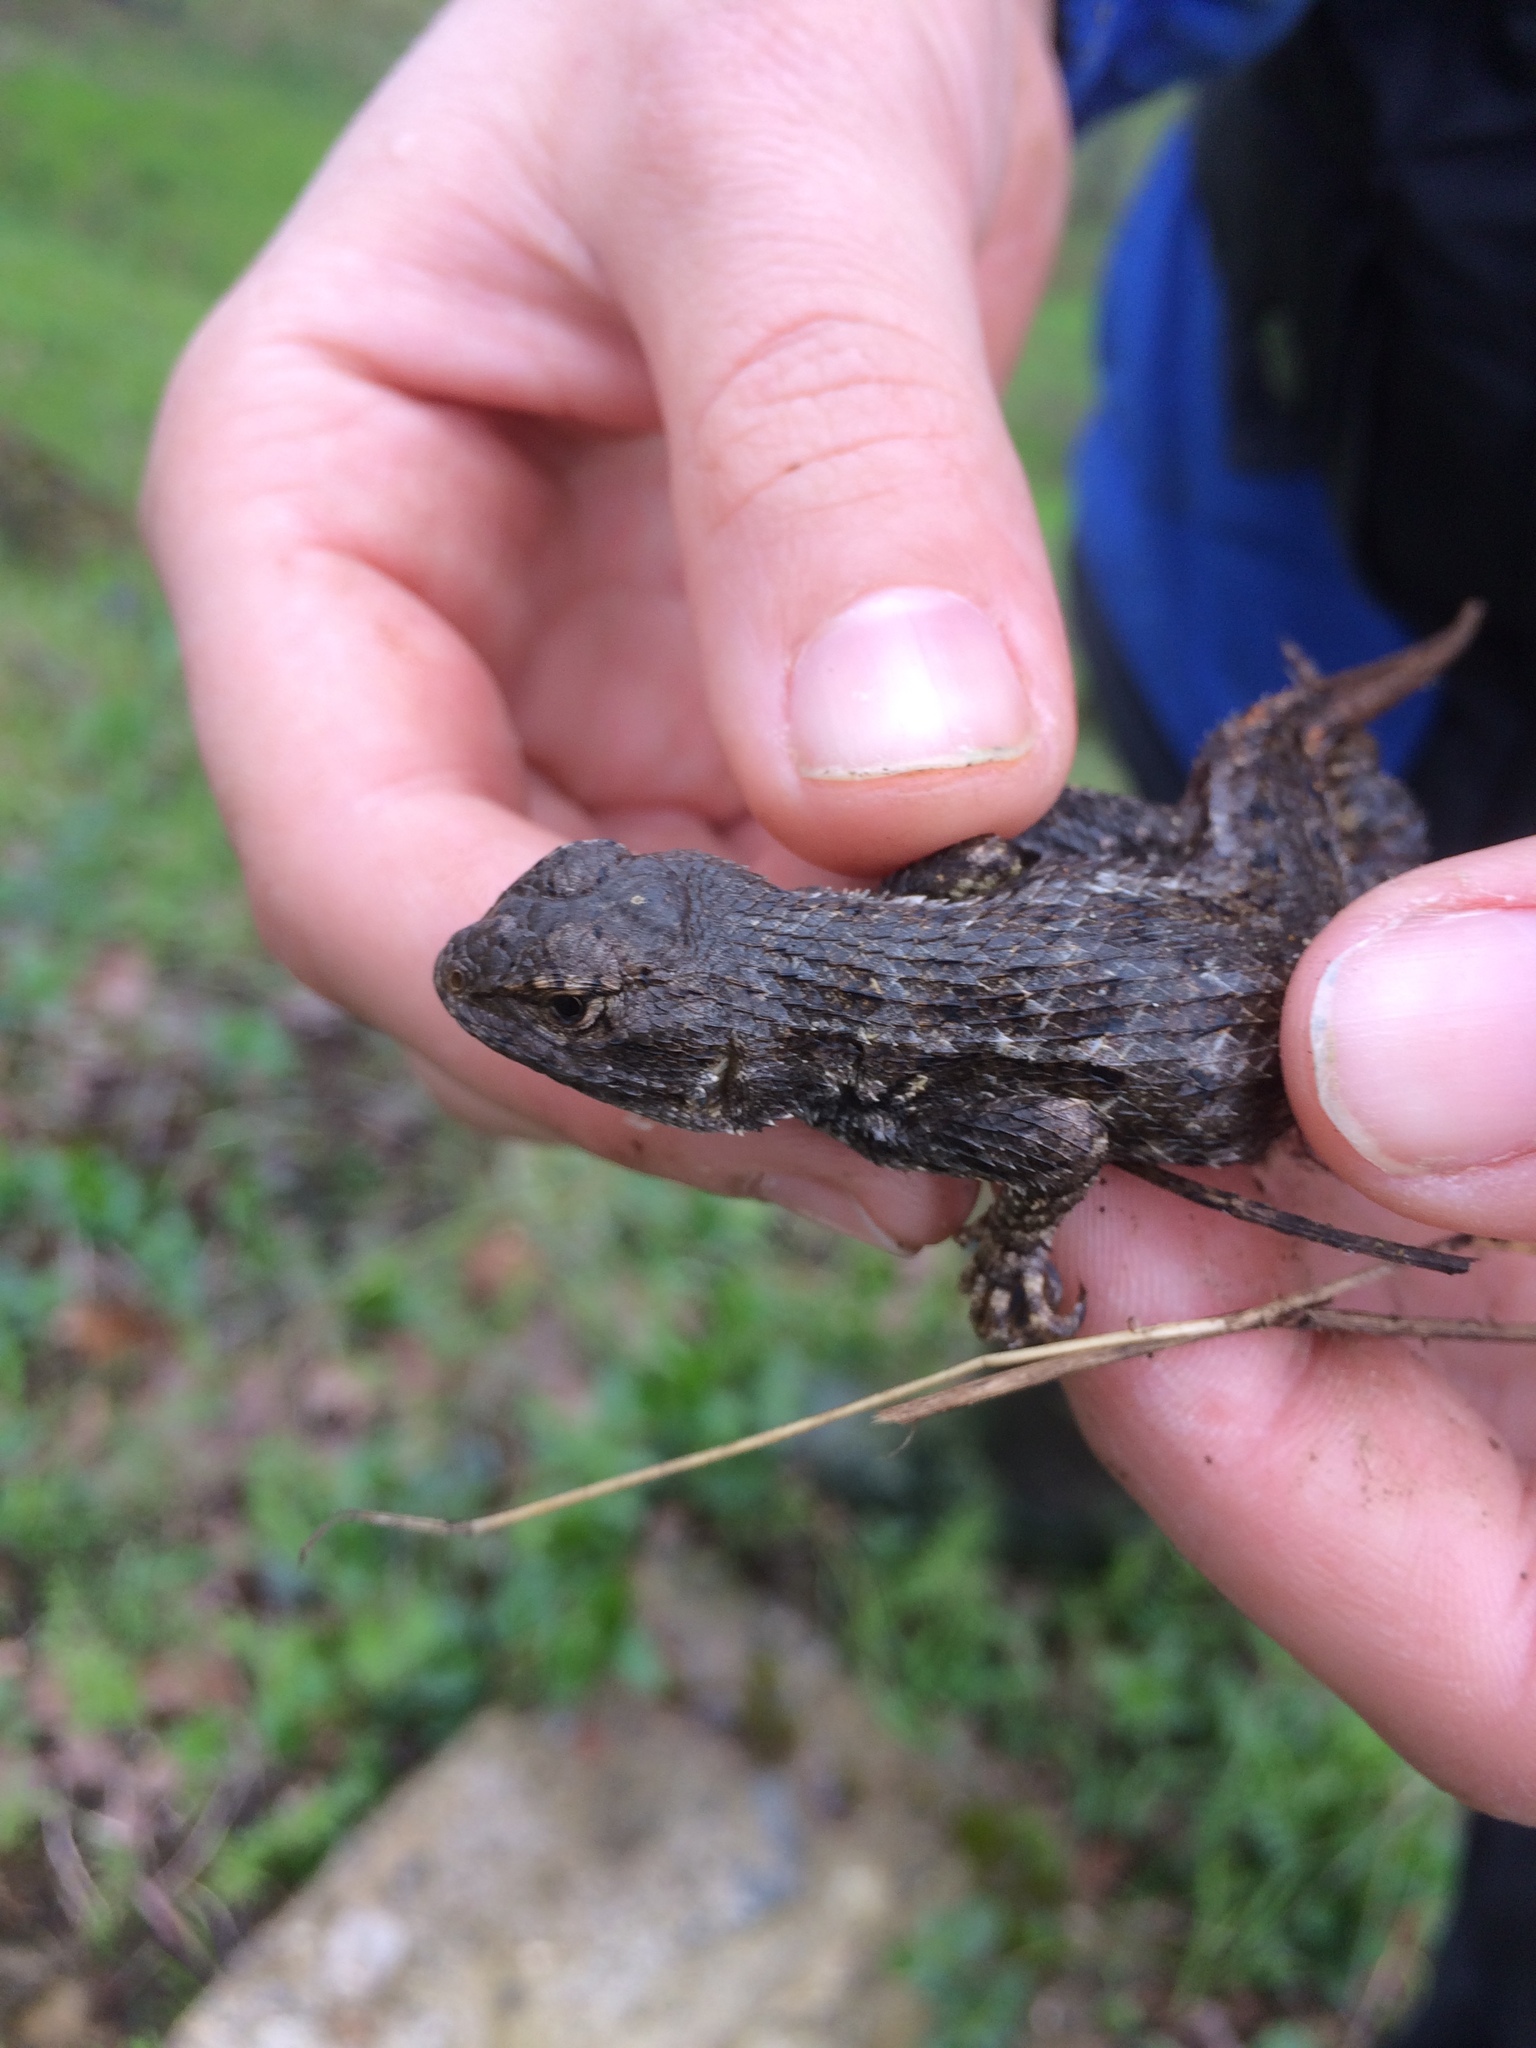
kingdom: Animalia
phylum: Chordata
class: Squamata
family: Phrynosomatidae
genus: Sceloporus
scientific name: Sceloporus occidentalis
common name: Western fence lizard
